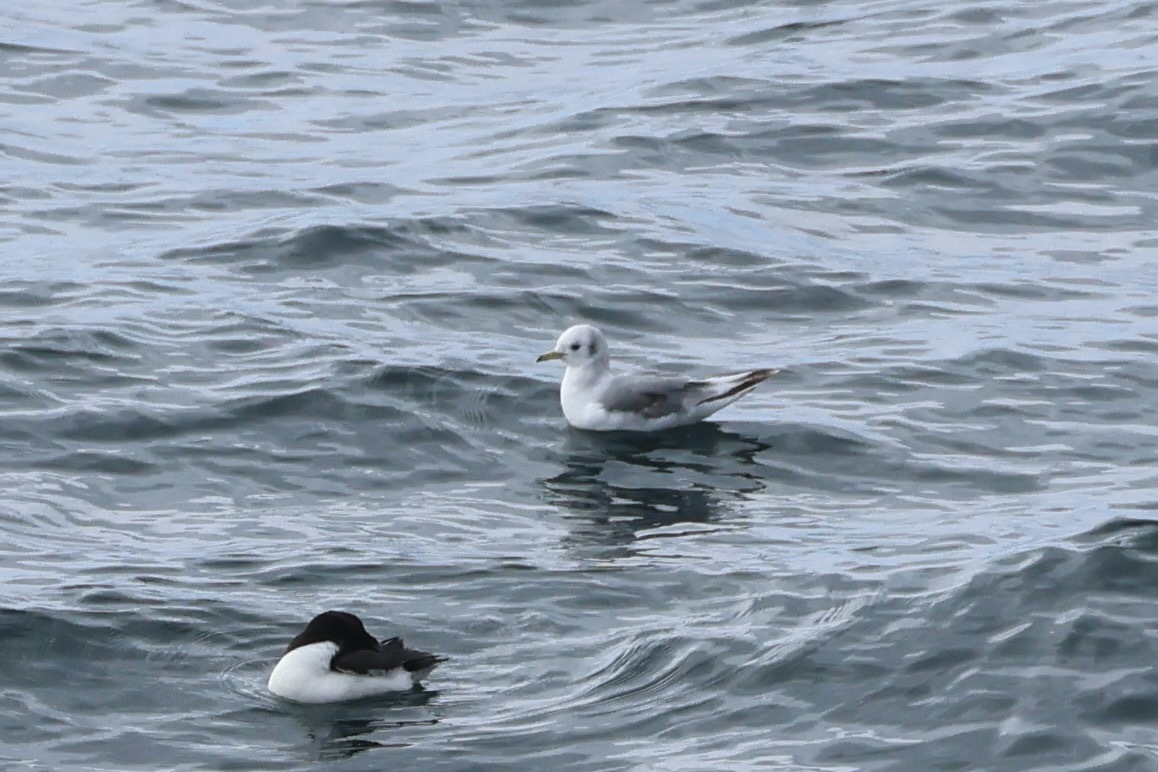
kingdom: Animalia
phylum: Chordata
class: Aves
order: Charadriiformes
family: Laridae
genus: Rissa
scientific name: Rissa tridactyla
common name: Black-legged kittiwake
